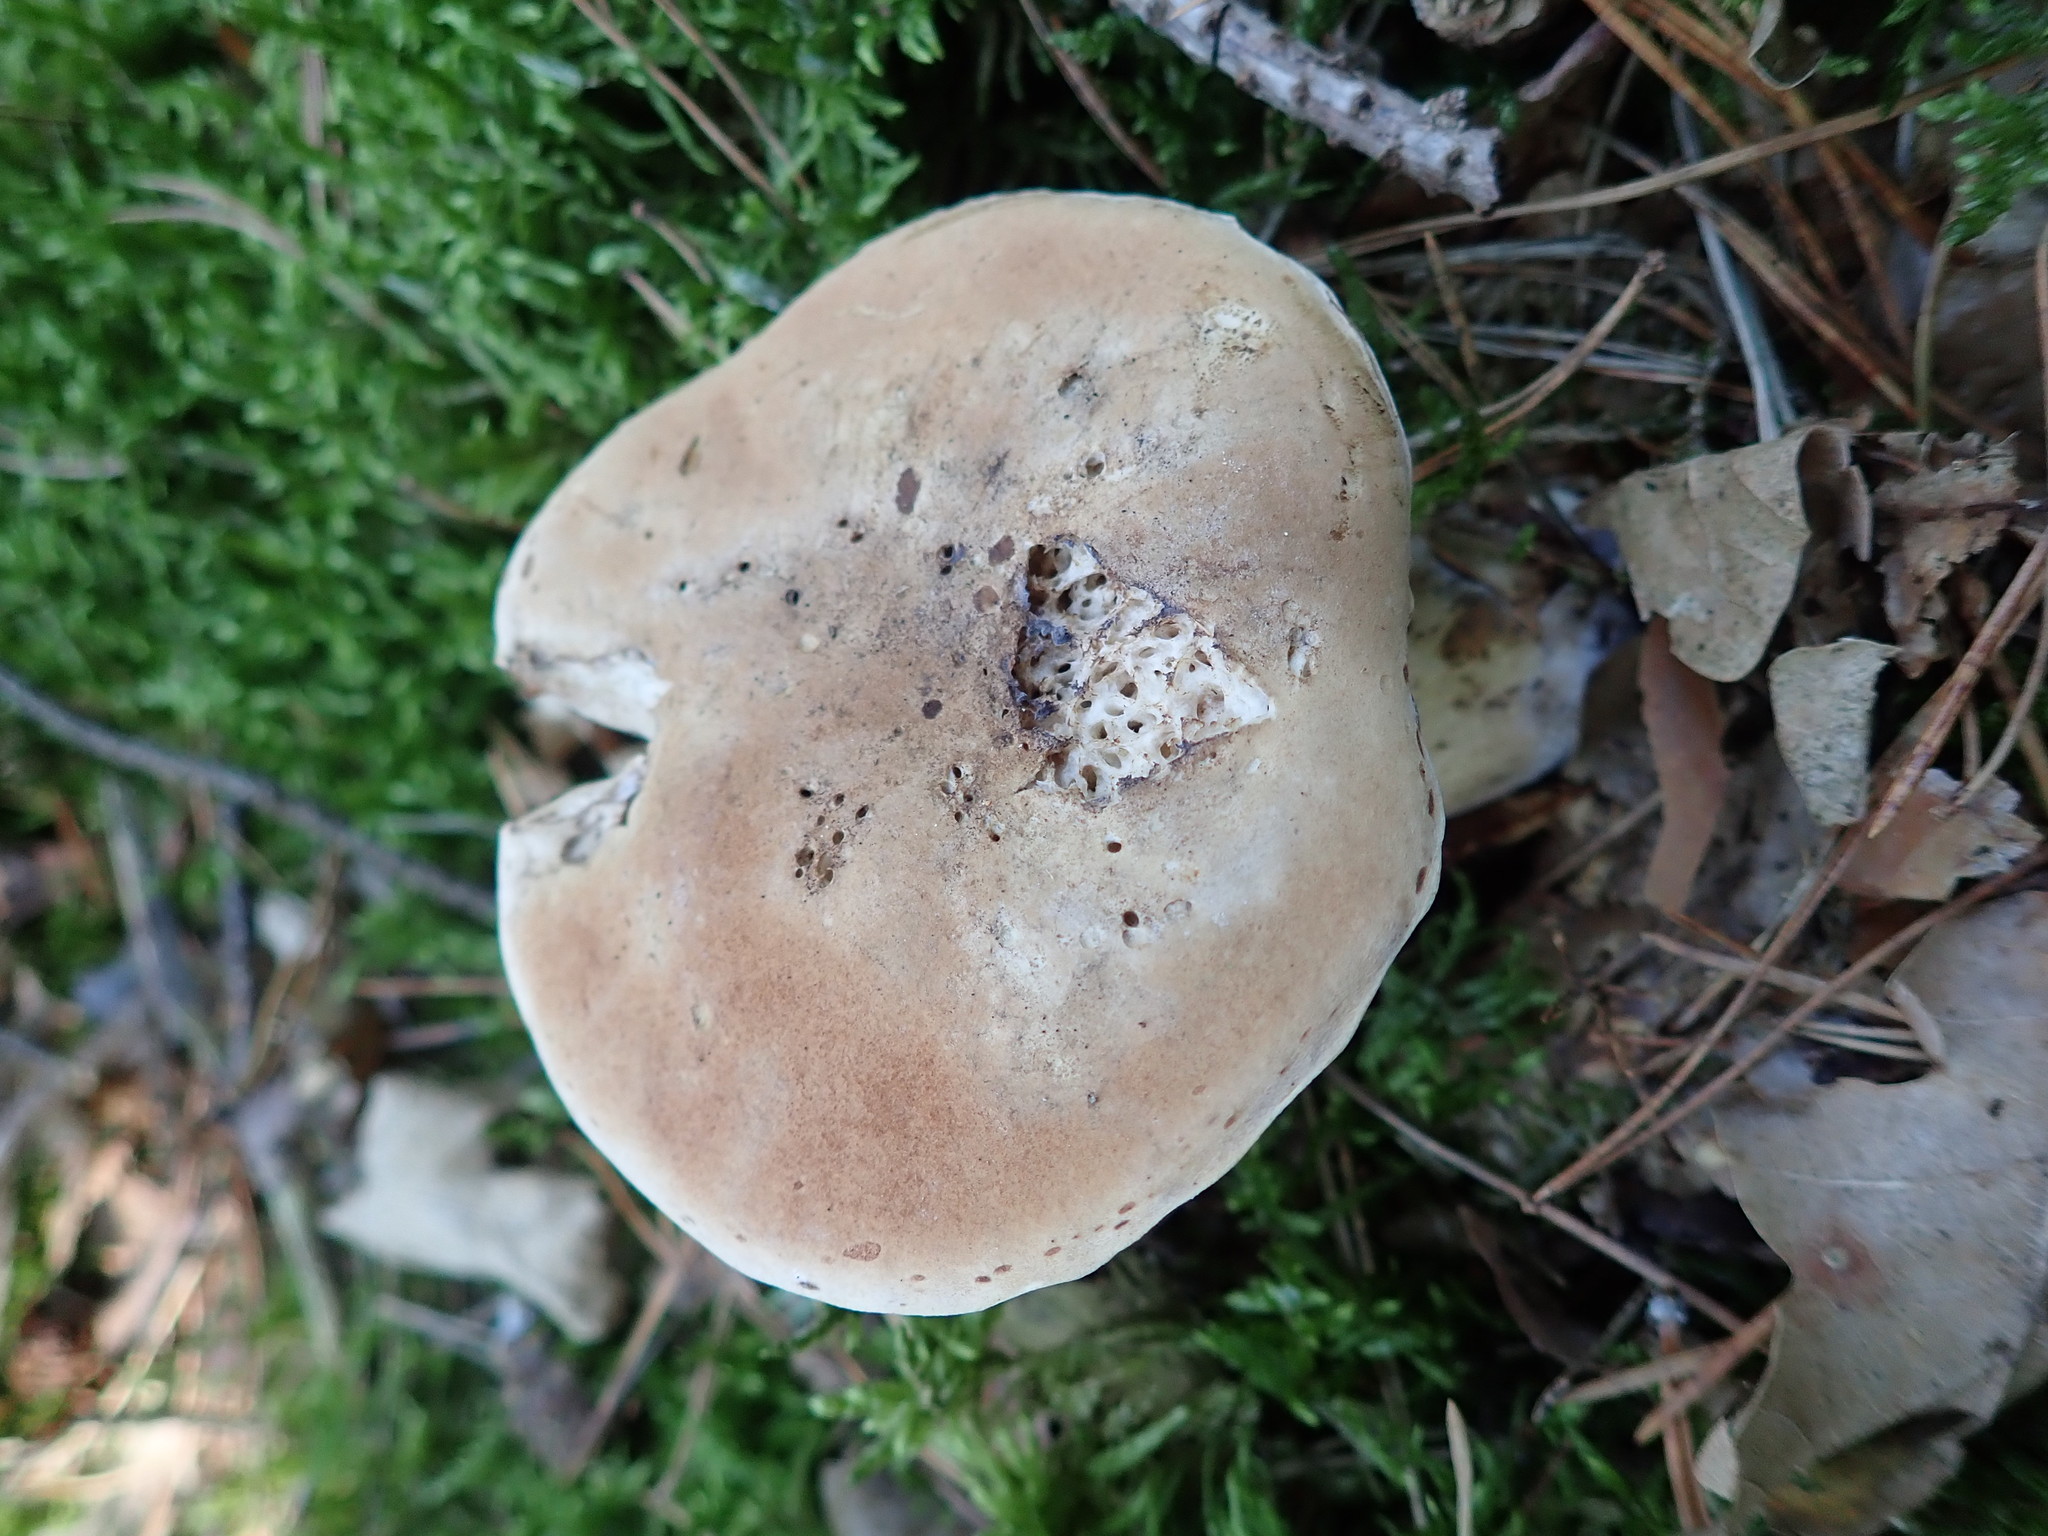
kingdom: Fungi
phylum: Basidiomycota
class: Agaricomycetes
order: Boletales
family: Boletaceae
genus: Tylopilus
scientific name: Tylopilus felleus
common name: Bitter bolete
